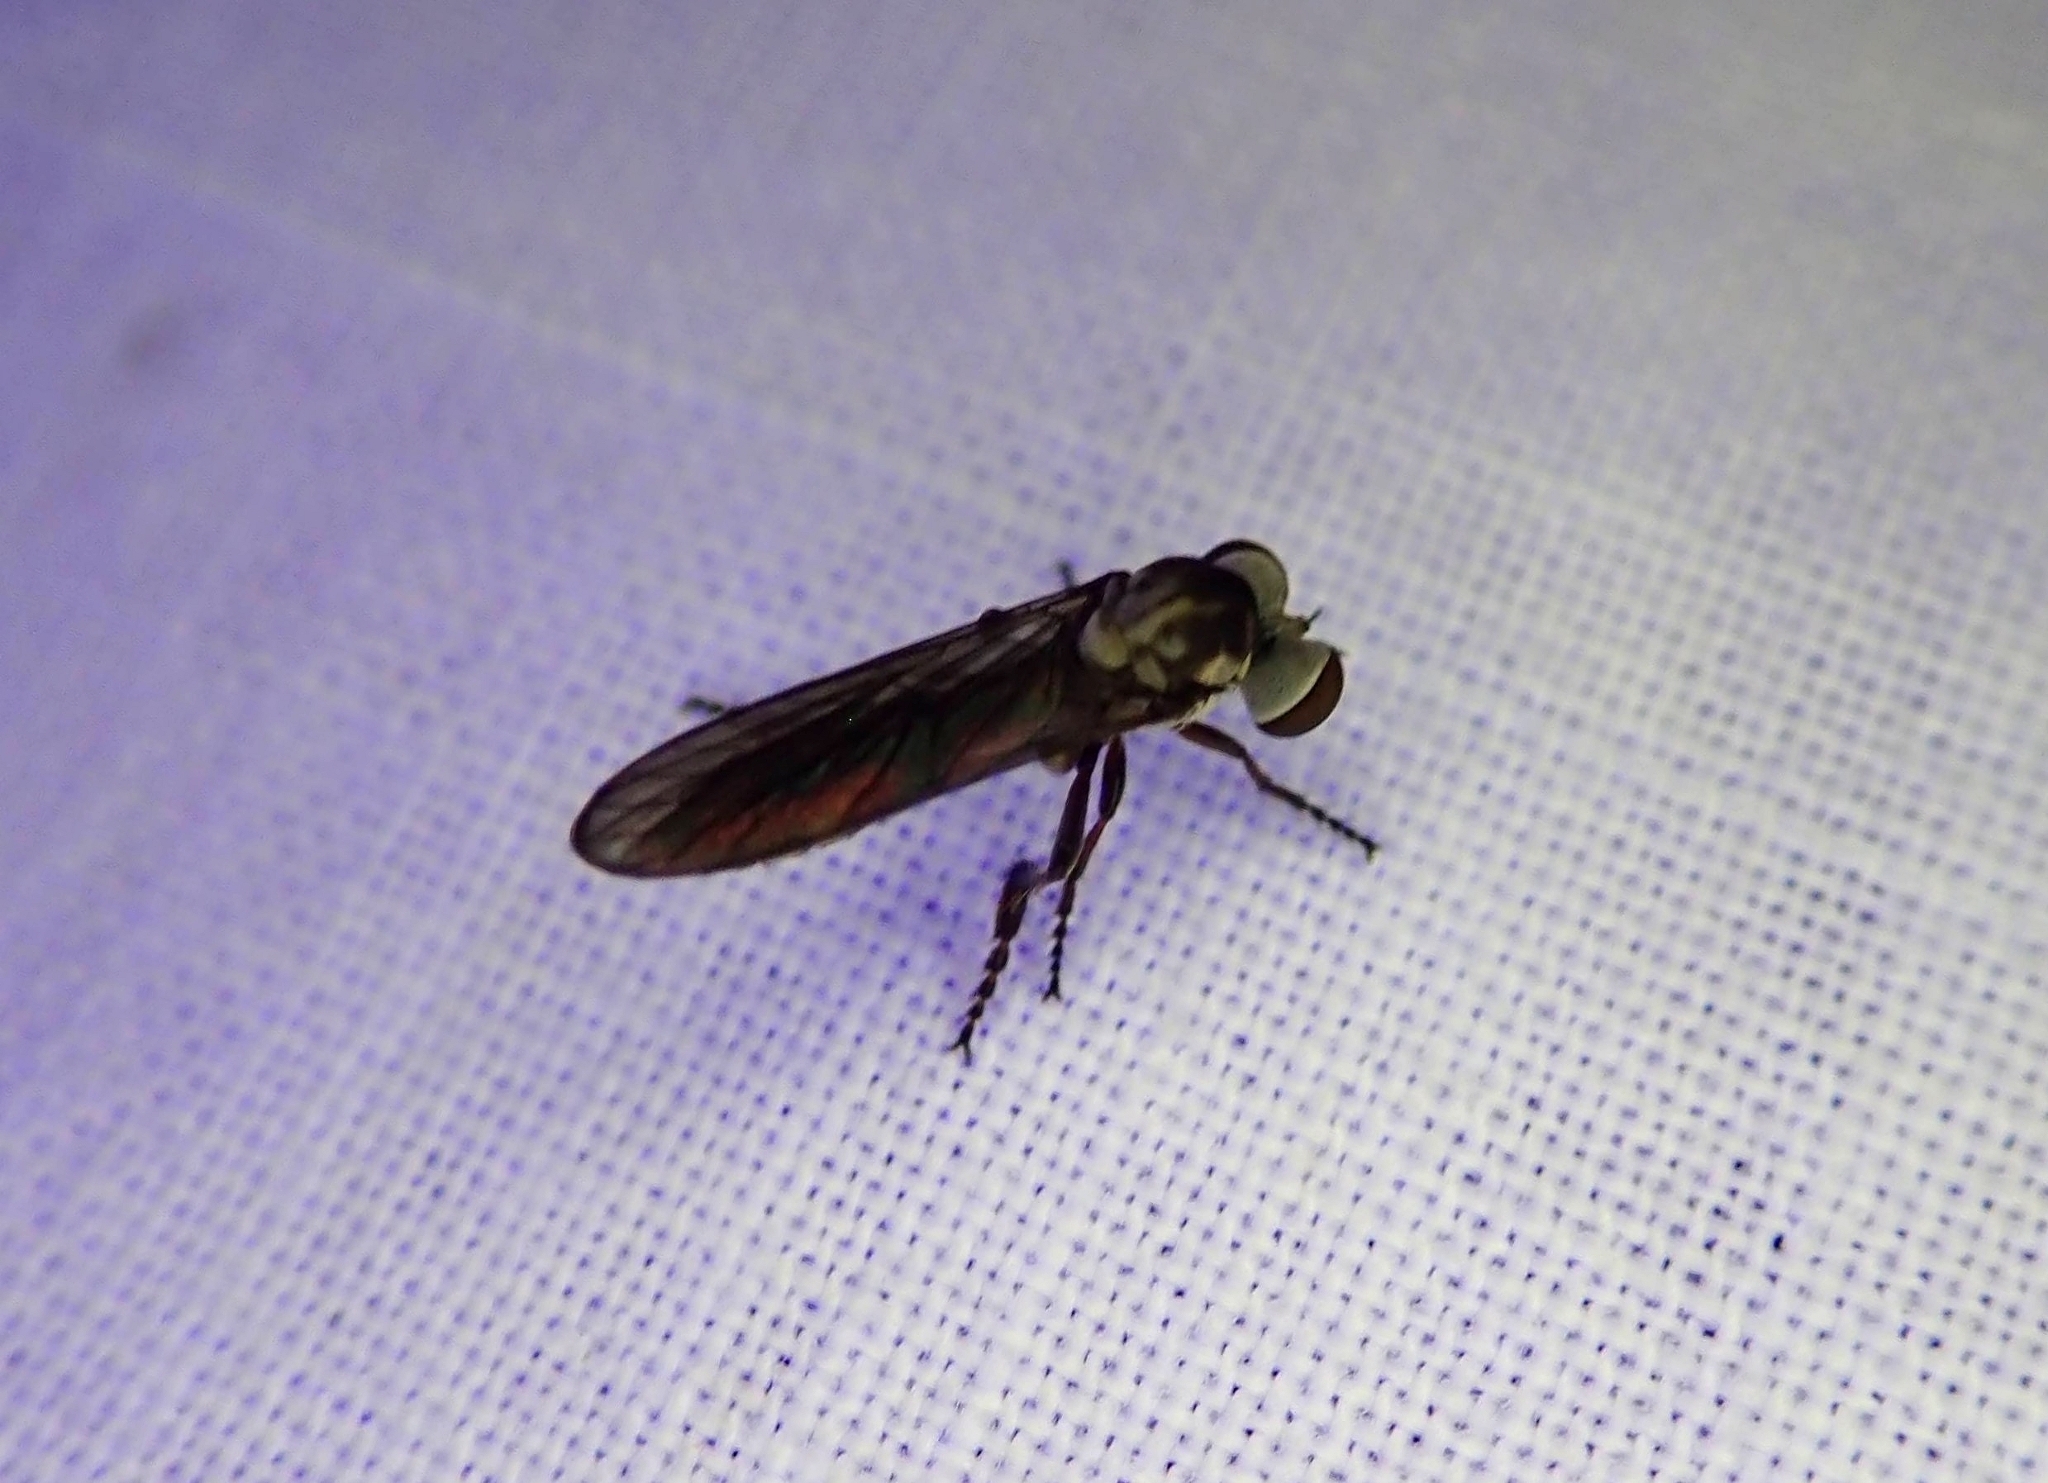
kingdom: Animalia
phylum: Arthropoda
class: Insecta
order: Diptera
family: Asilidae
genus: Holcocephala
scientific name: Holcocephala calva
